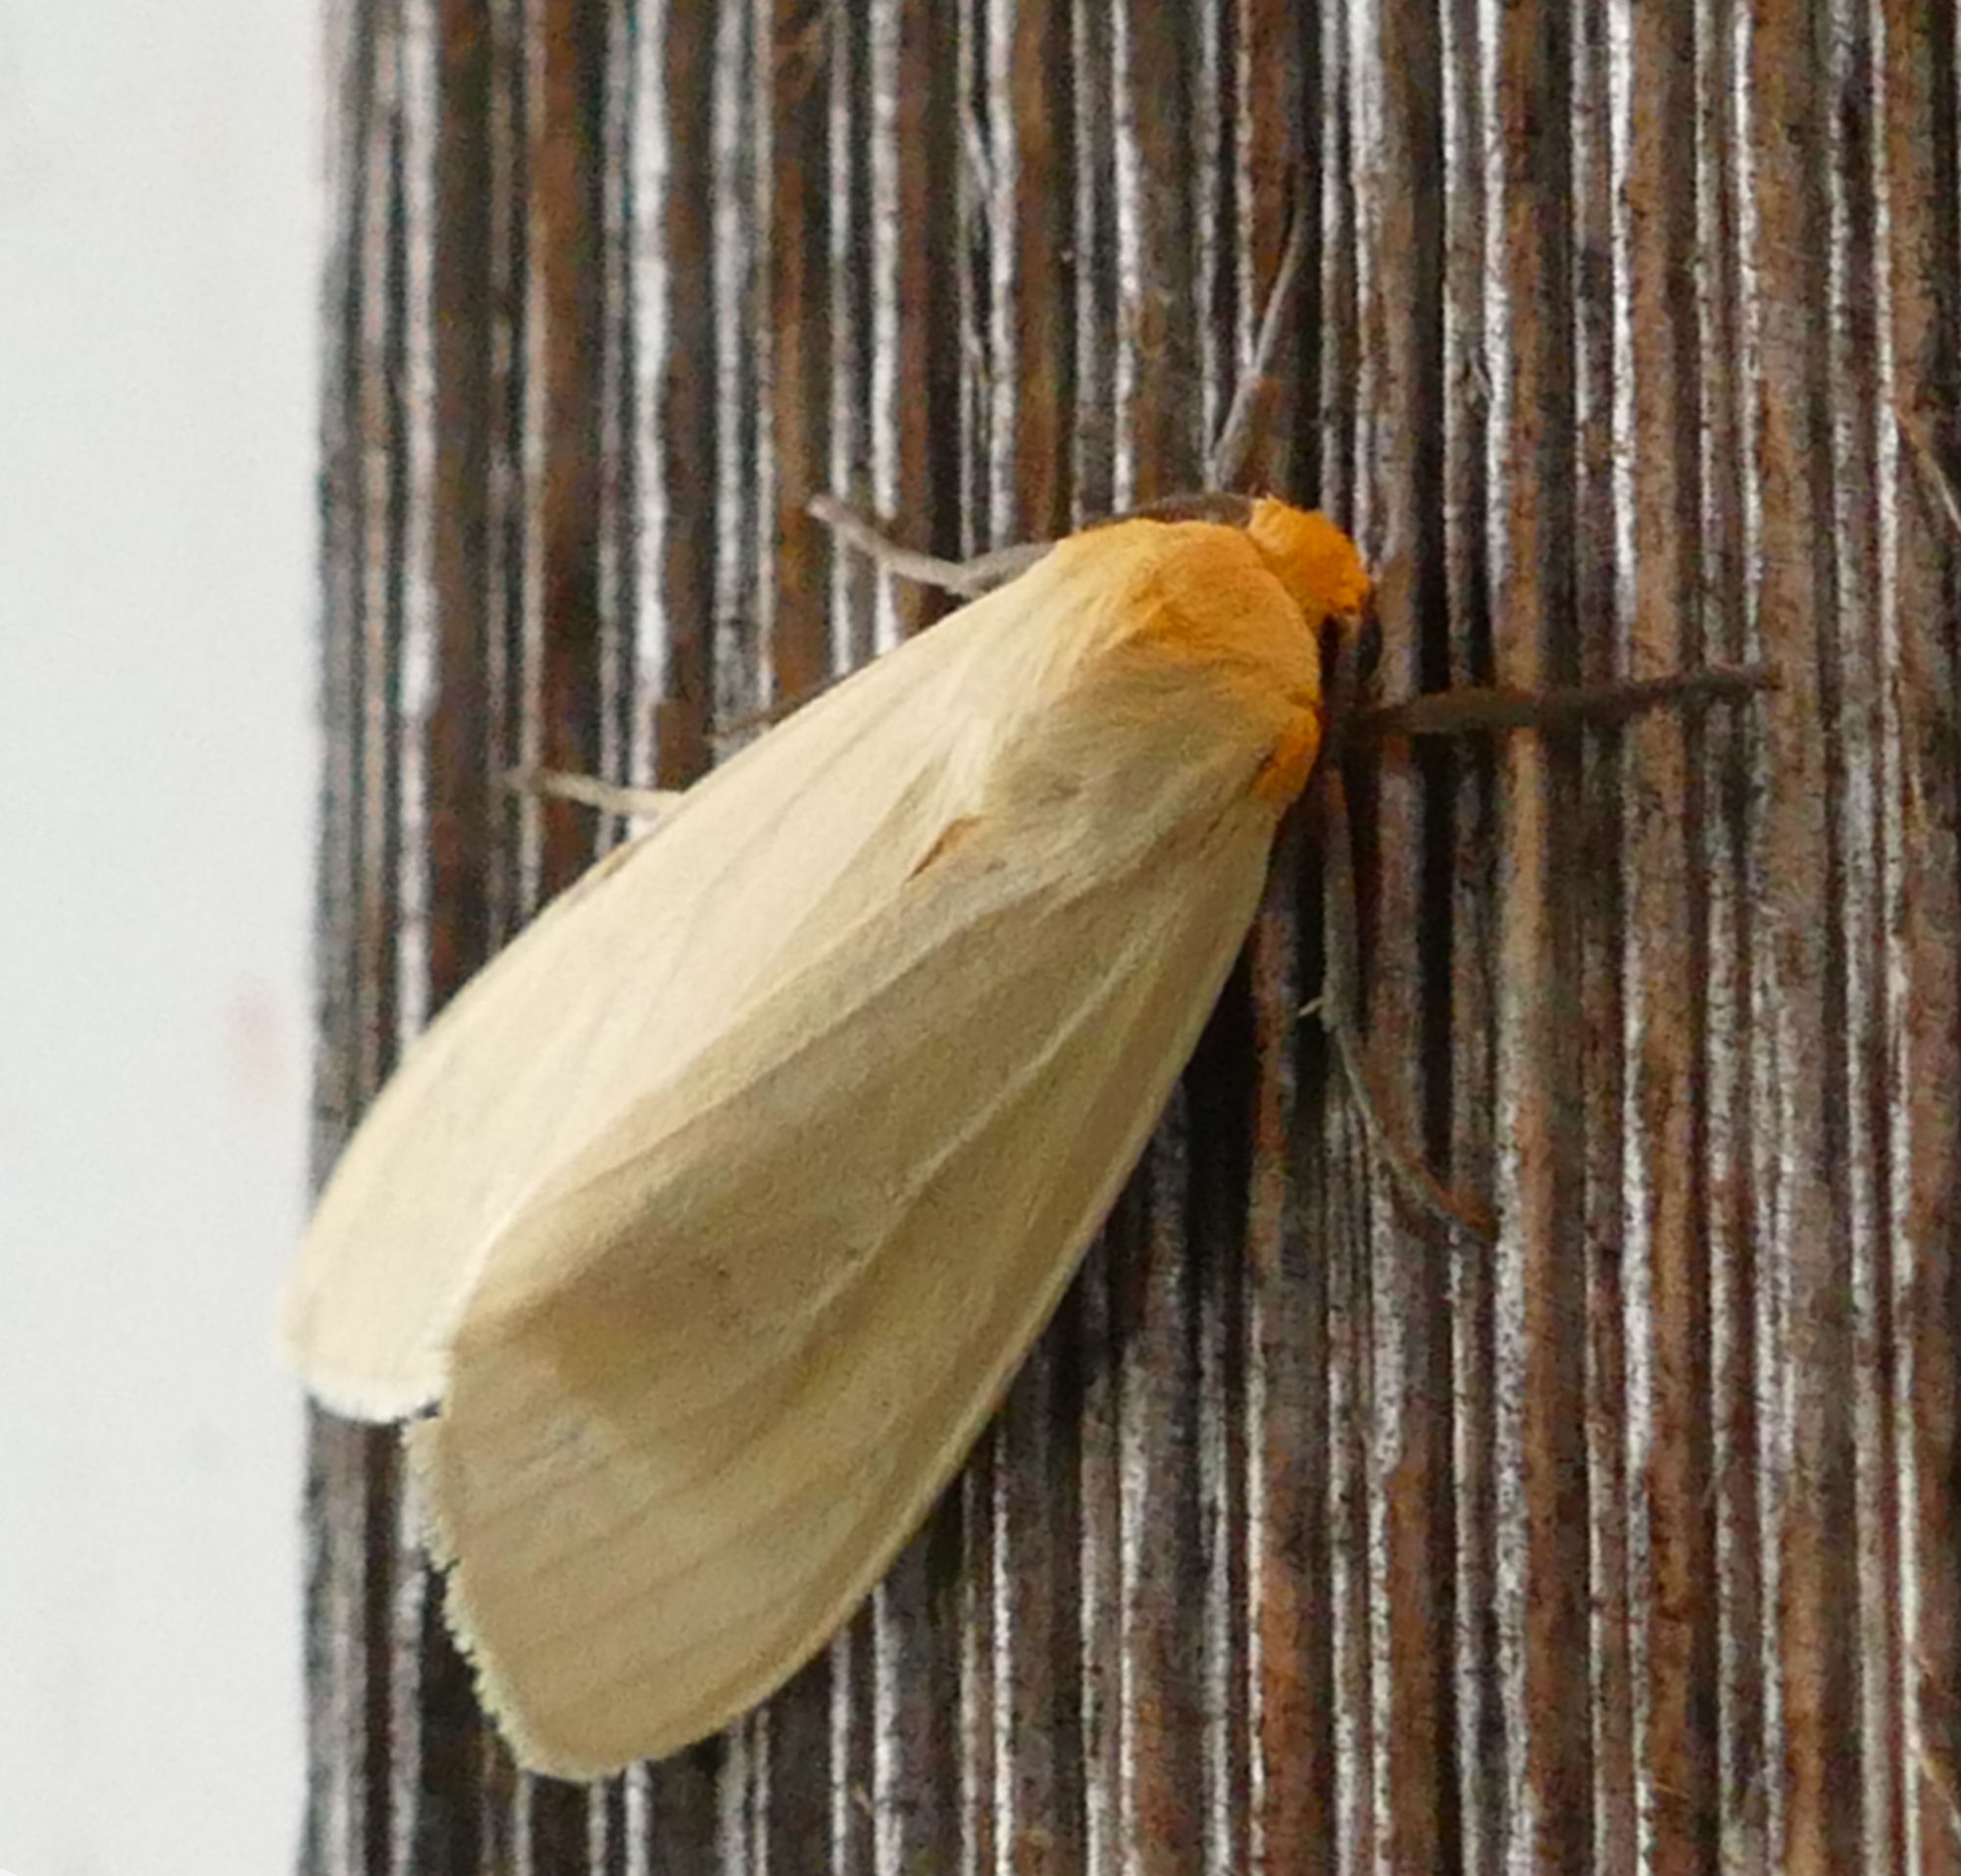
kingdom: Animalia
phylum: Arthropoda
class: Insecta
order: Lepidoptera
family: Erebidae
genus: Pareuchaetes
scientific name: Pareuchaetes insulata
